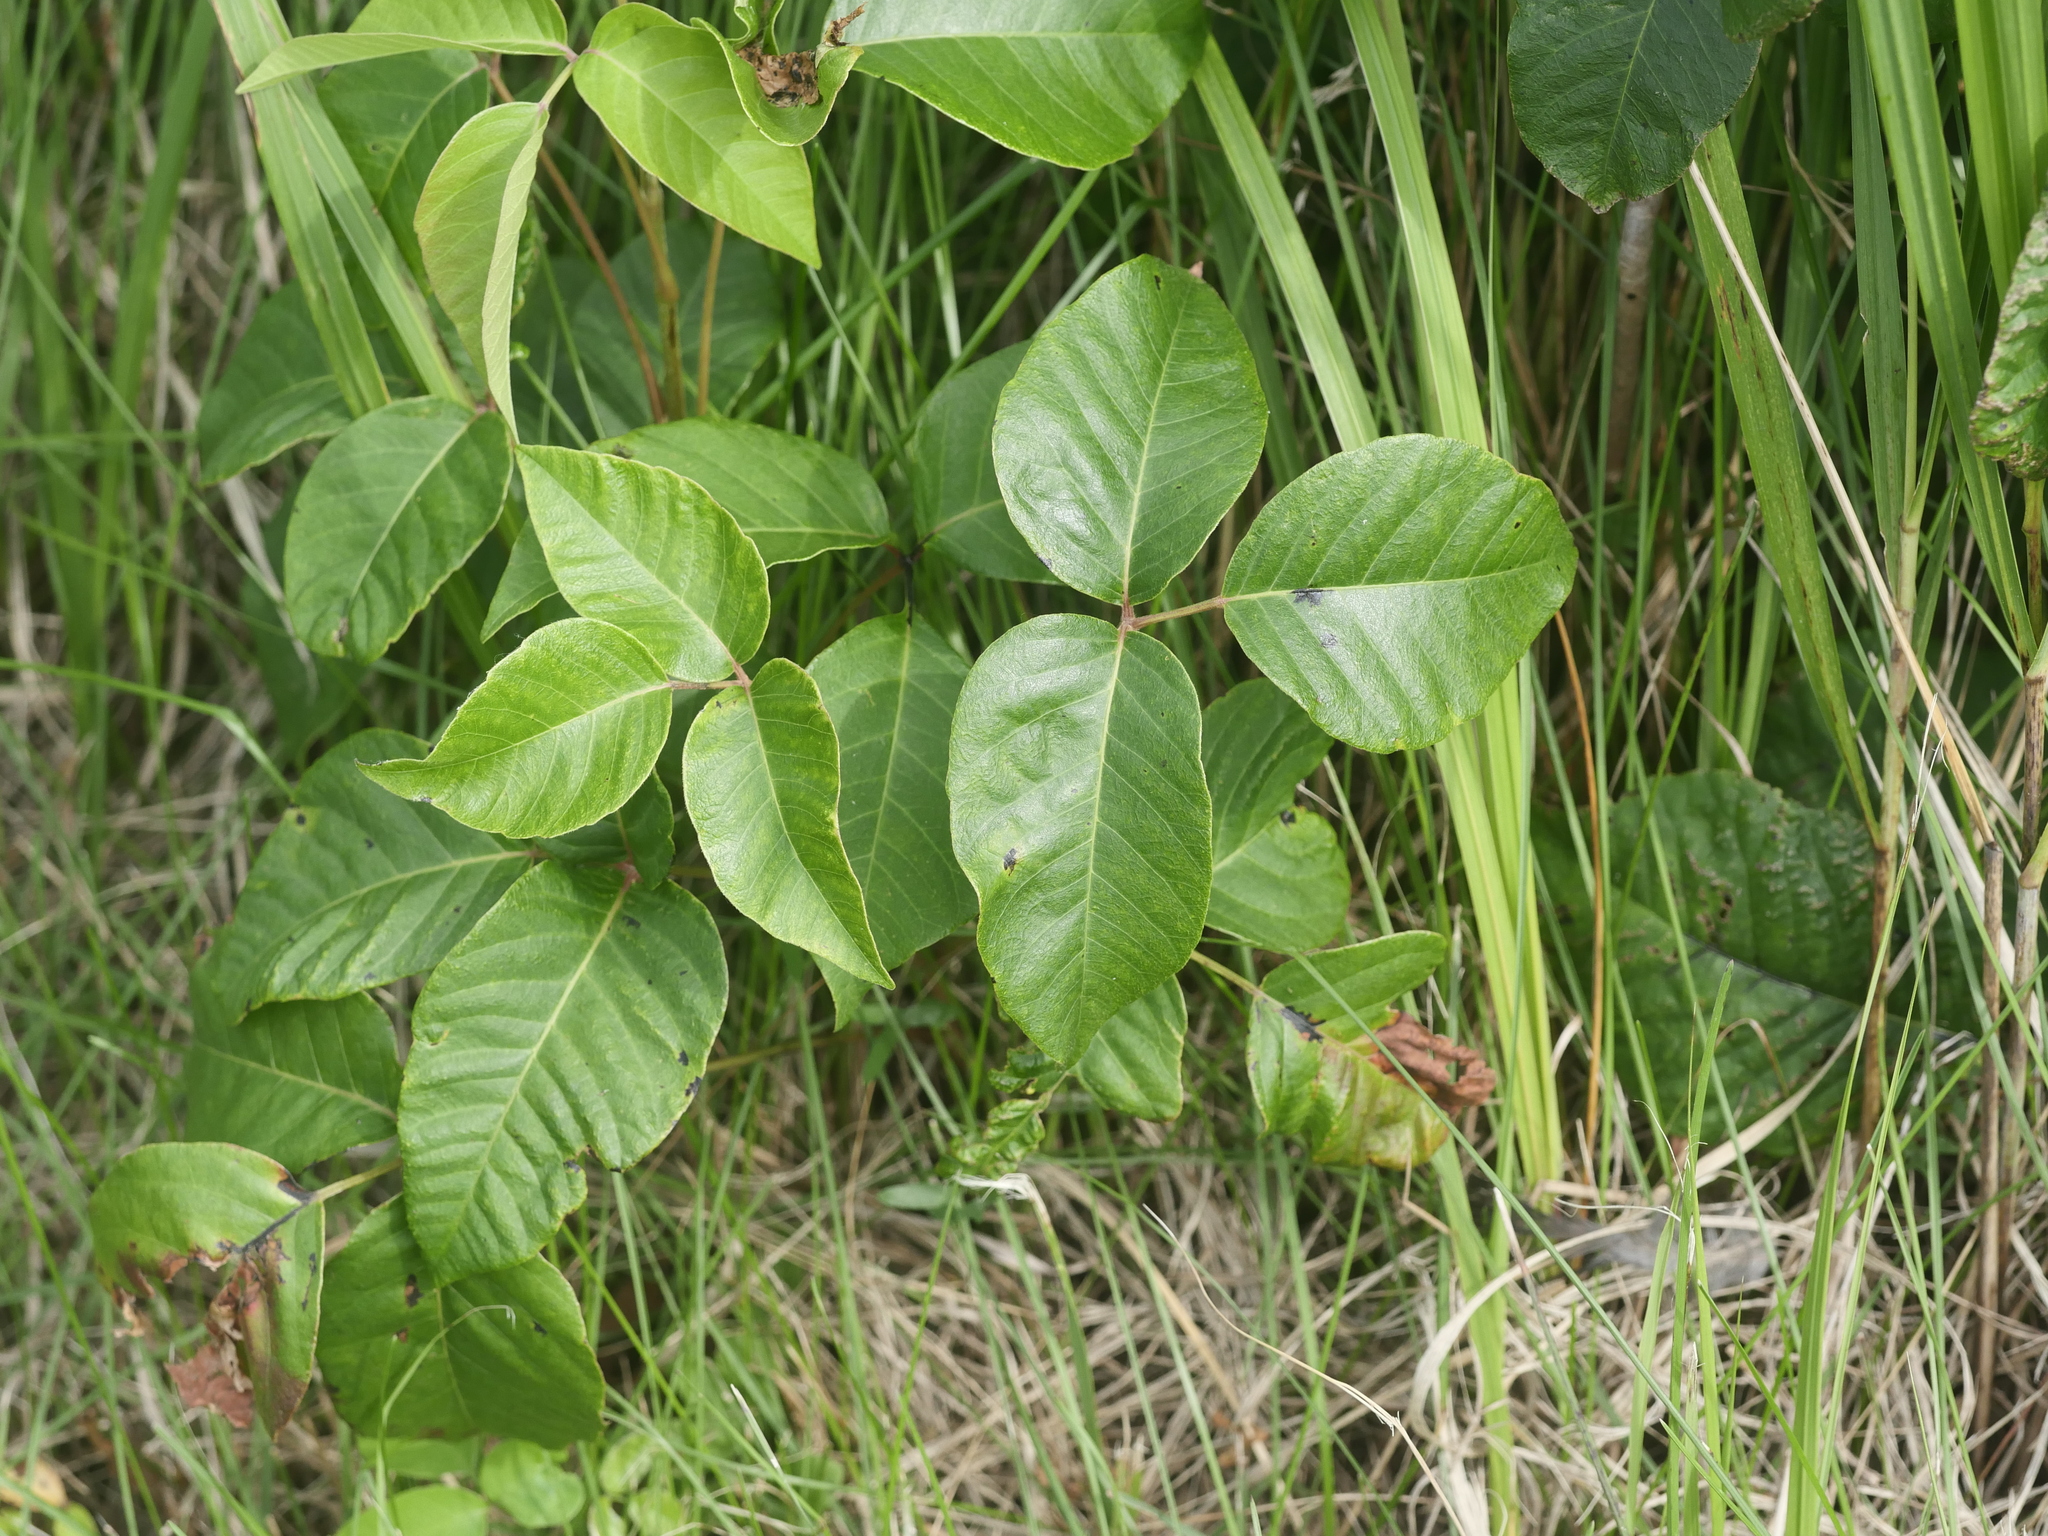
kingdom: Plantae
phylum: Tracheophyta
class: Magnoliopsida
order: Sapindales
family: Anacardiaceae
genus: Toxicodendron
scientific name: Toxicodendron rydbergii
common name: Rydberg's poison-ivy
